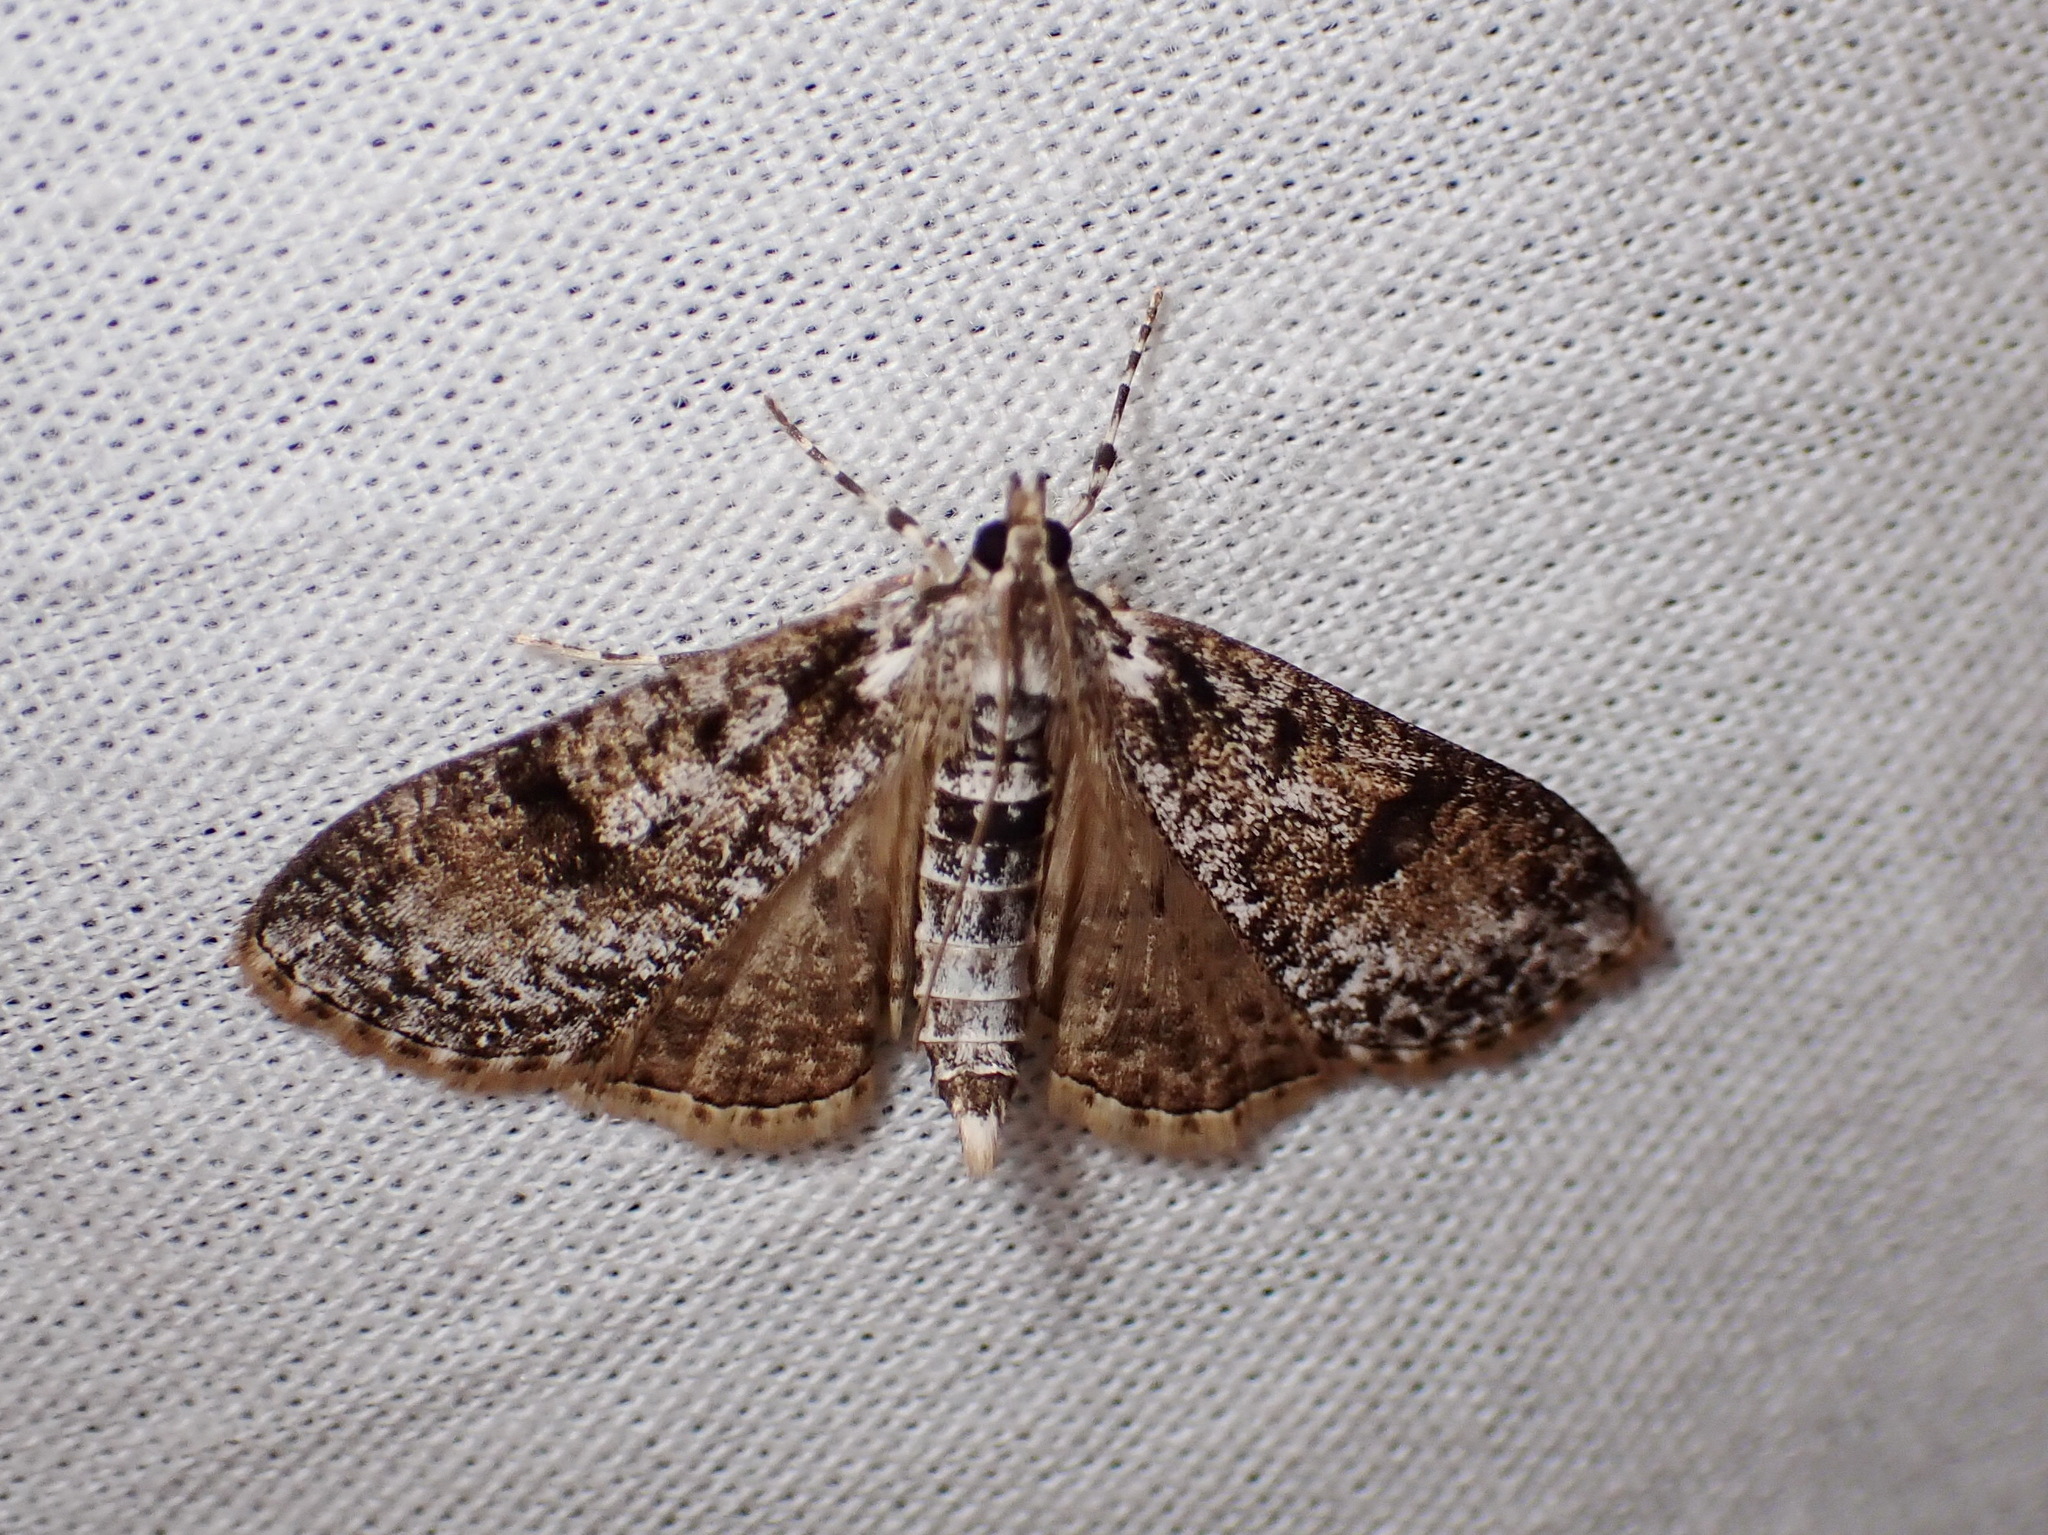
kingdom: Animalia
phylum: Arthropoda
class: Insecta
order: Lepidoptera
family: Crambidae
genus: Palpita
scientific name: Palpita magniferalis
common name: Splendid palpita moth
